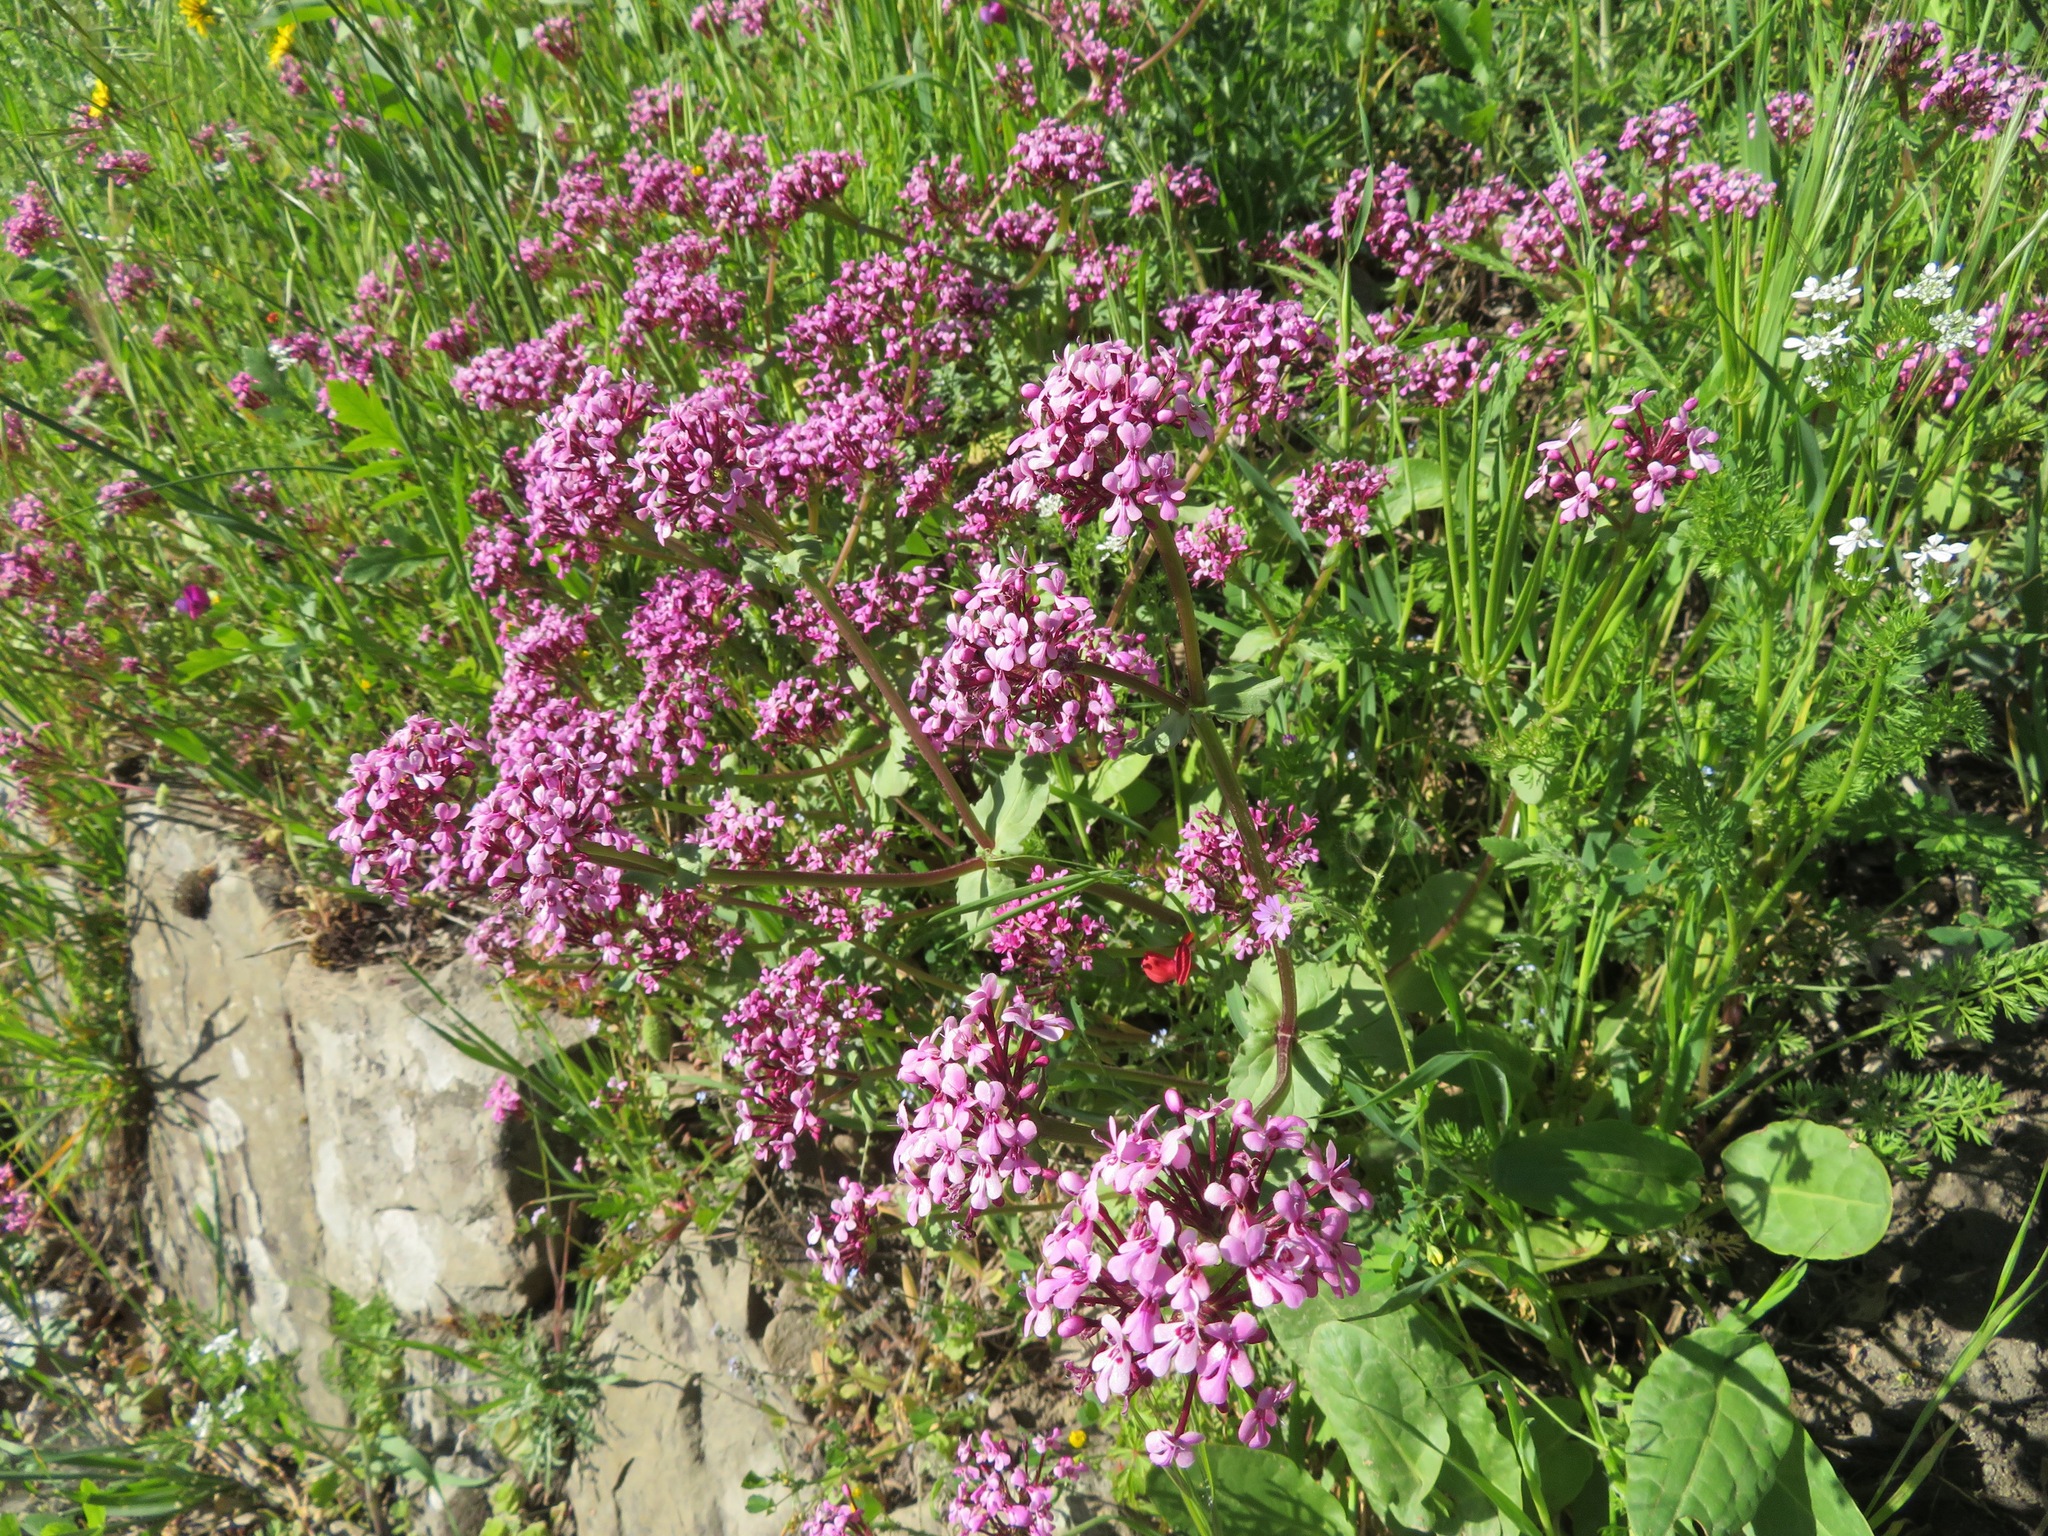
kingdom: Plantae
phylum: Tracheophyta
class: Magnoliopsida
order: Dipsacales
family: Caprifoliaceae
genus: Fedia
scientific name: Fedia graciliflora
